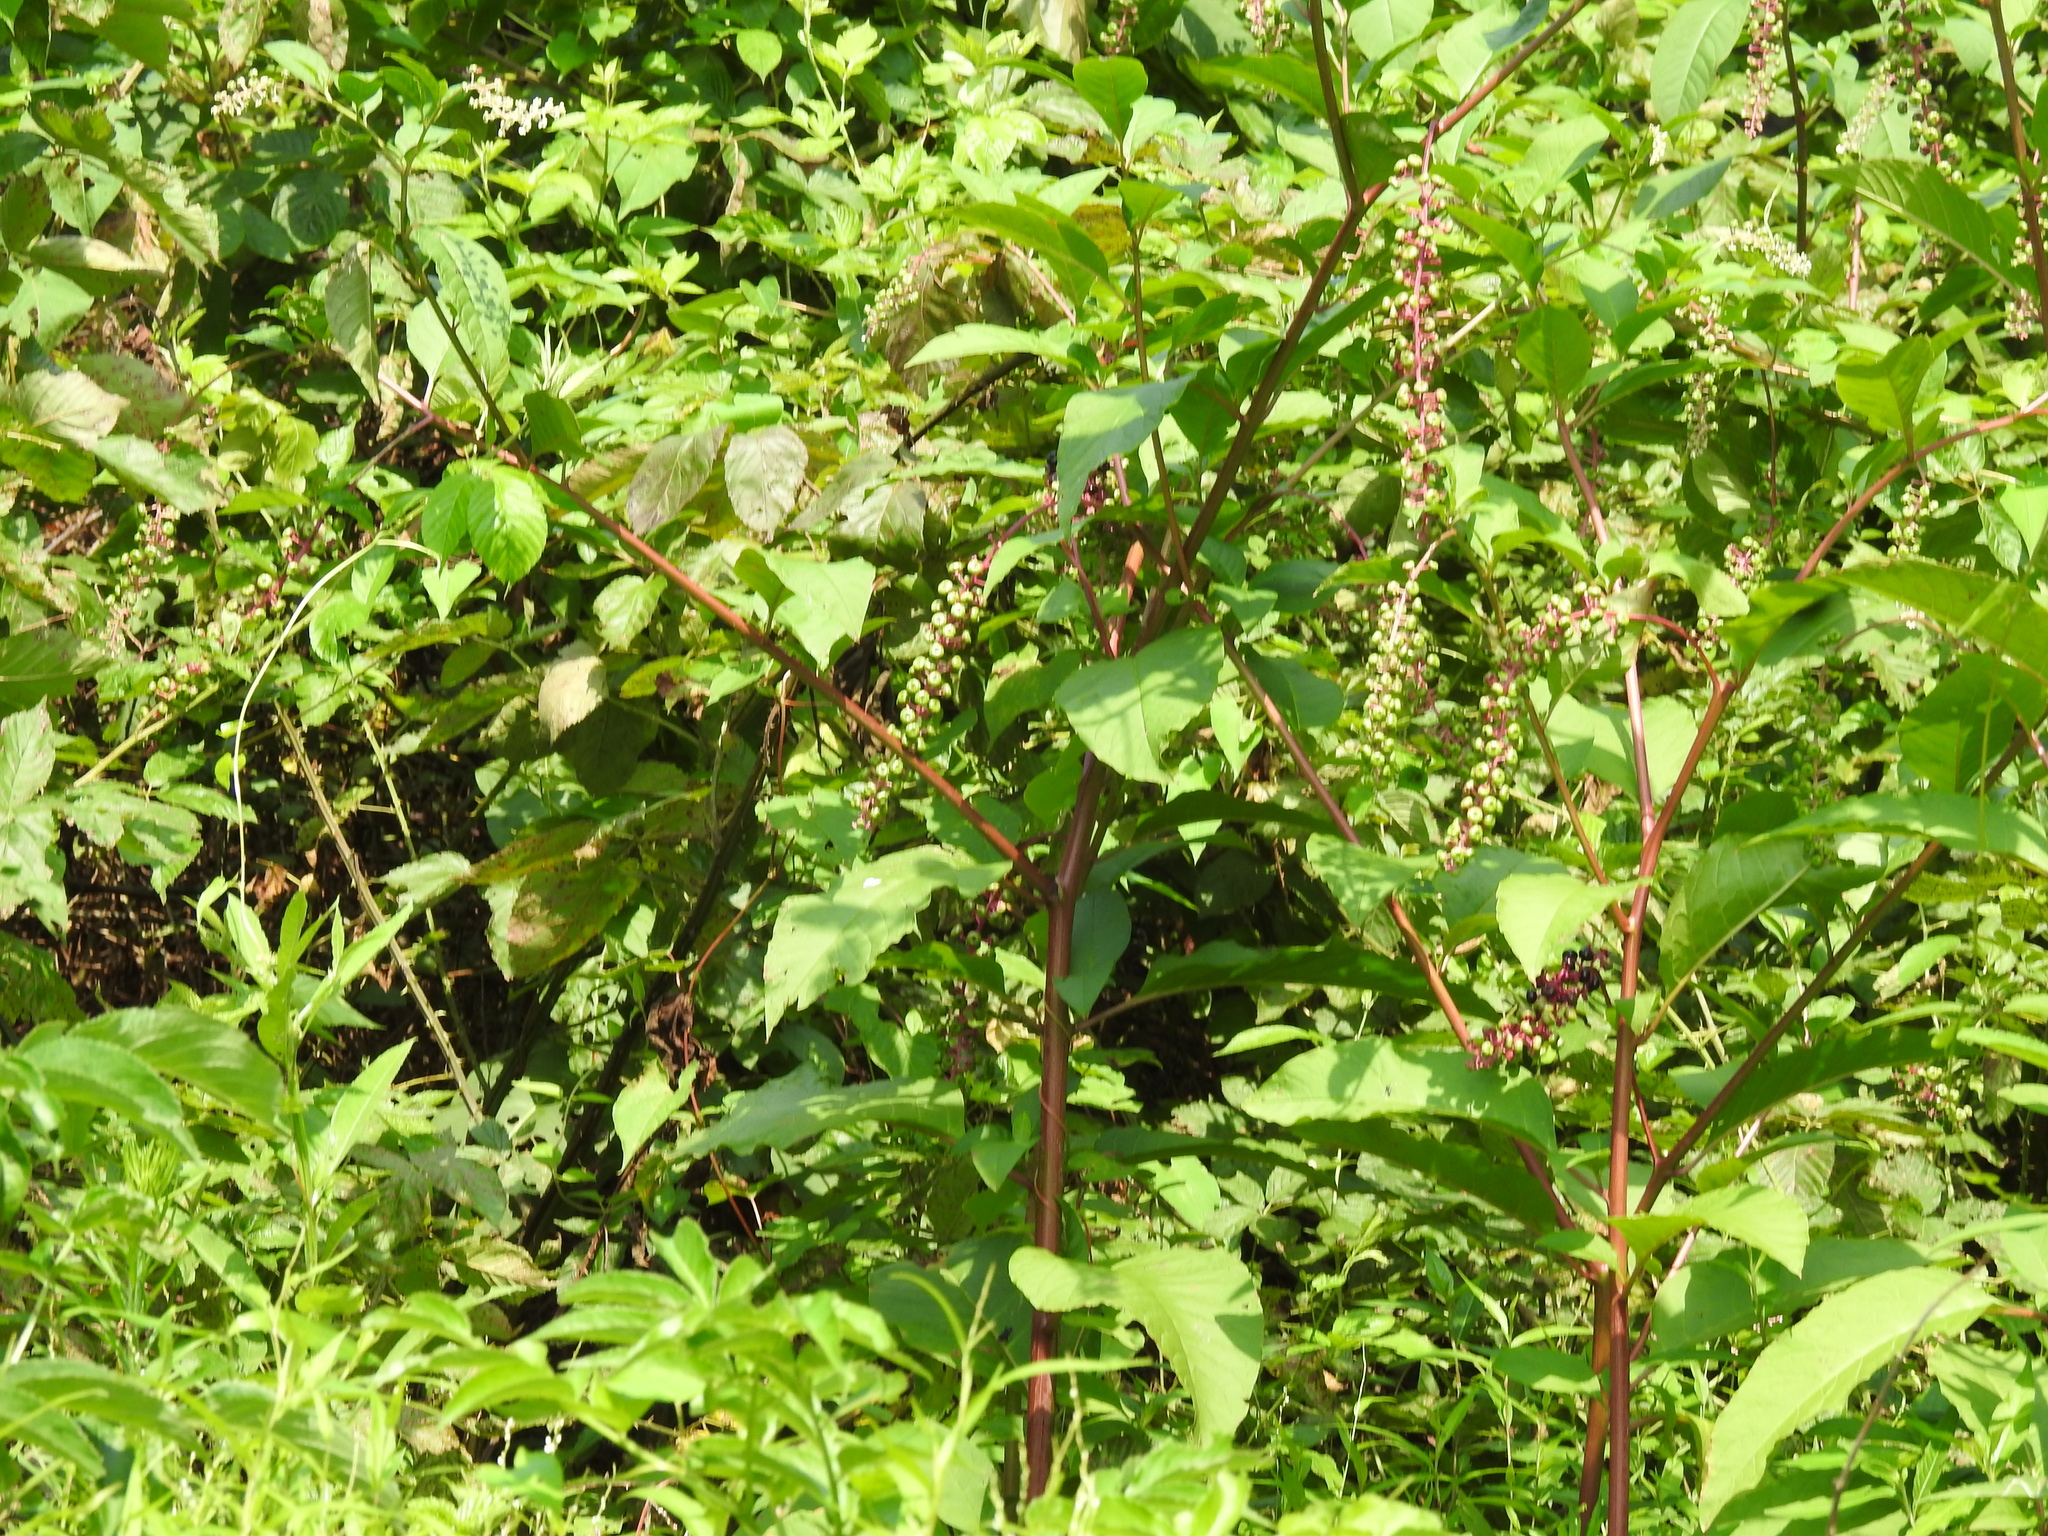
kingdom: Plantae
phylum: Tracheophyta
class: Magnoliopsida
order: Caryophyllales
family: Phytolaccaceae
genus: Phytolacca
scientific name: Phytolacca americana
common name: American pokeweed
